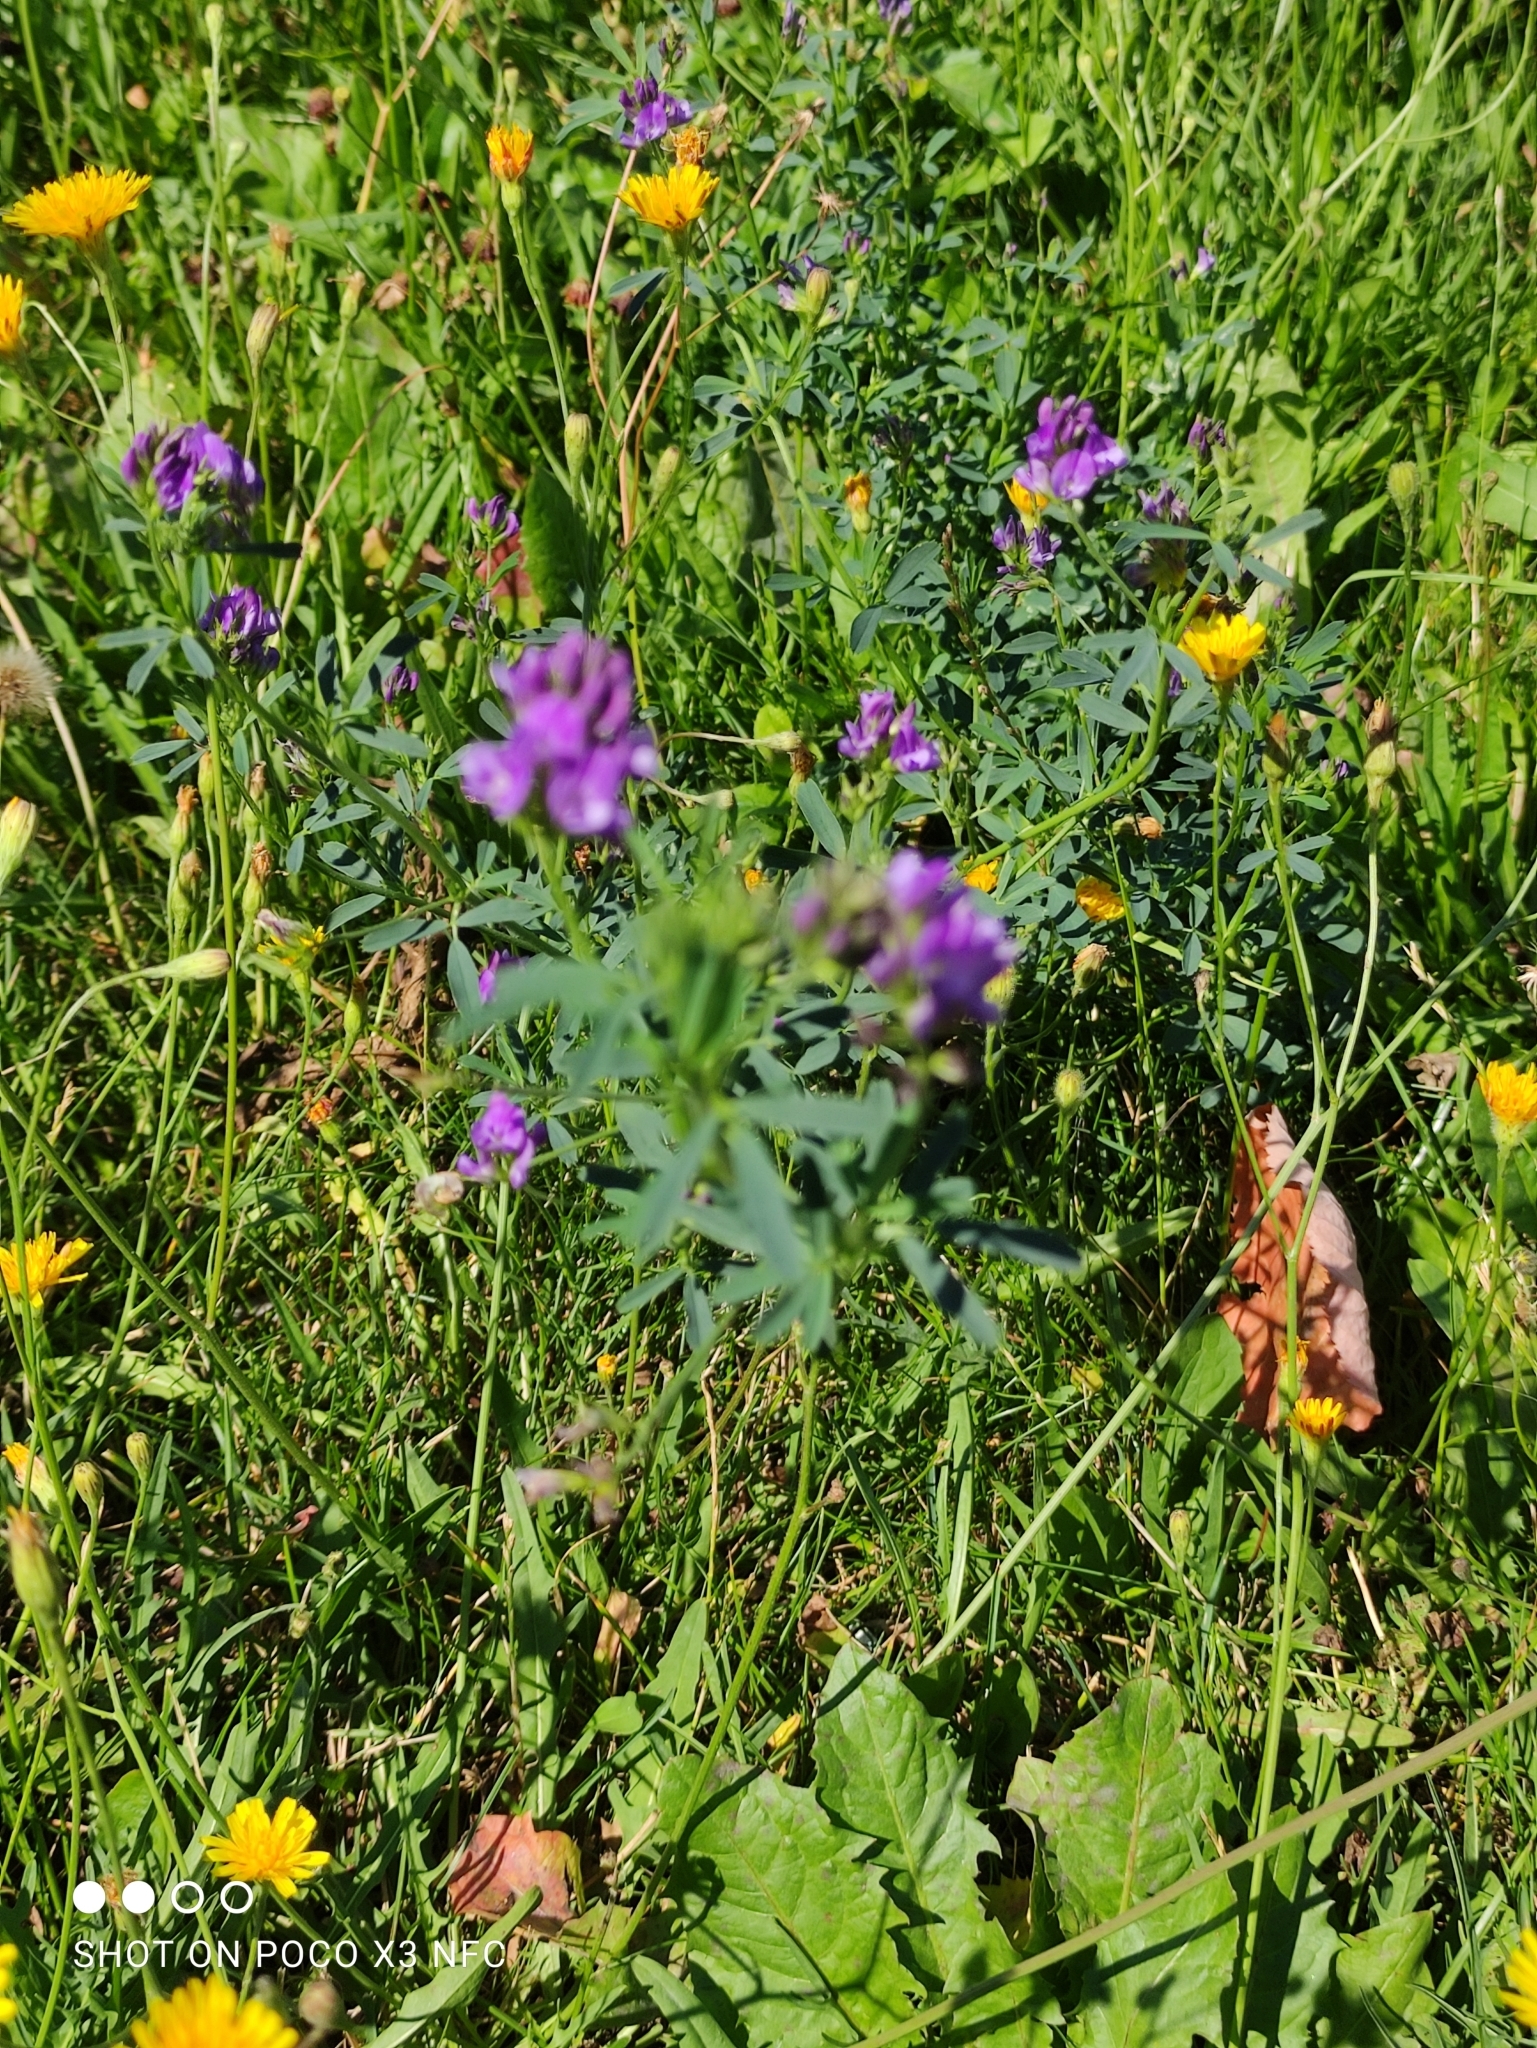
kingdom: Plantae
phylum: Tracheophyta
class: Magnoliopsida
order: Fabales
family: Fabaceae
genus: Medicago
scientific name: Medicago sativa
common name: Alfalfa
